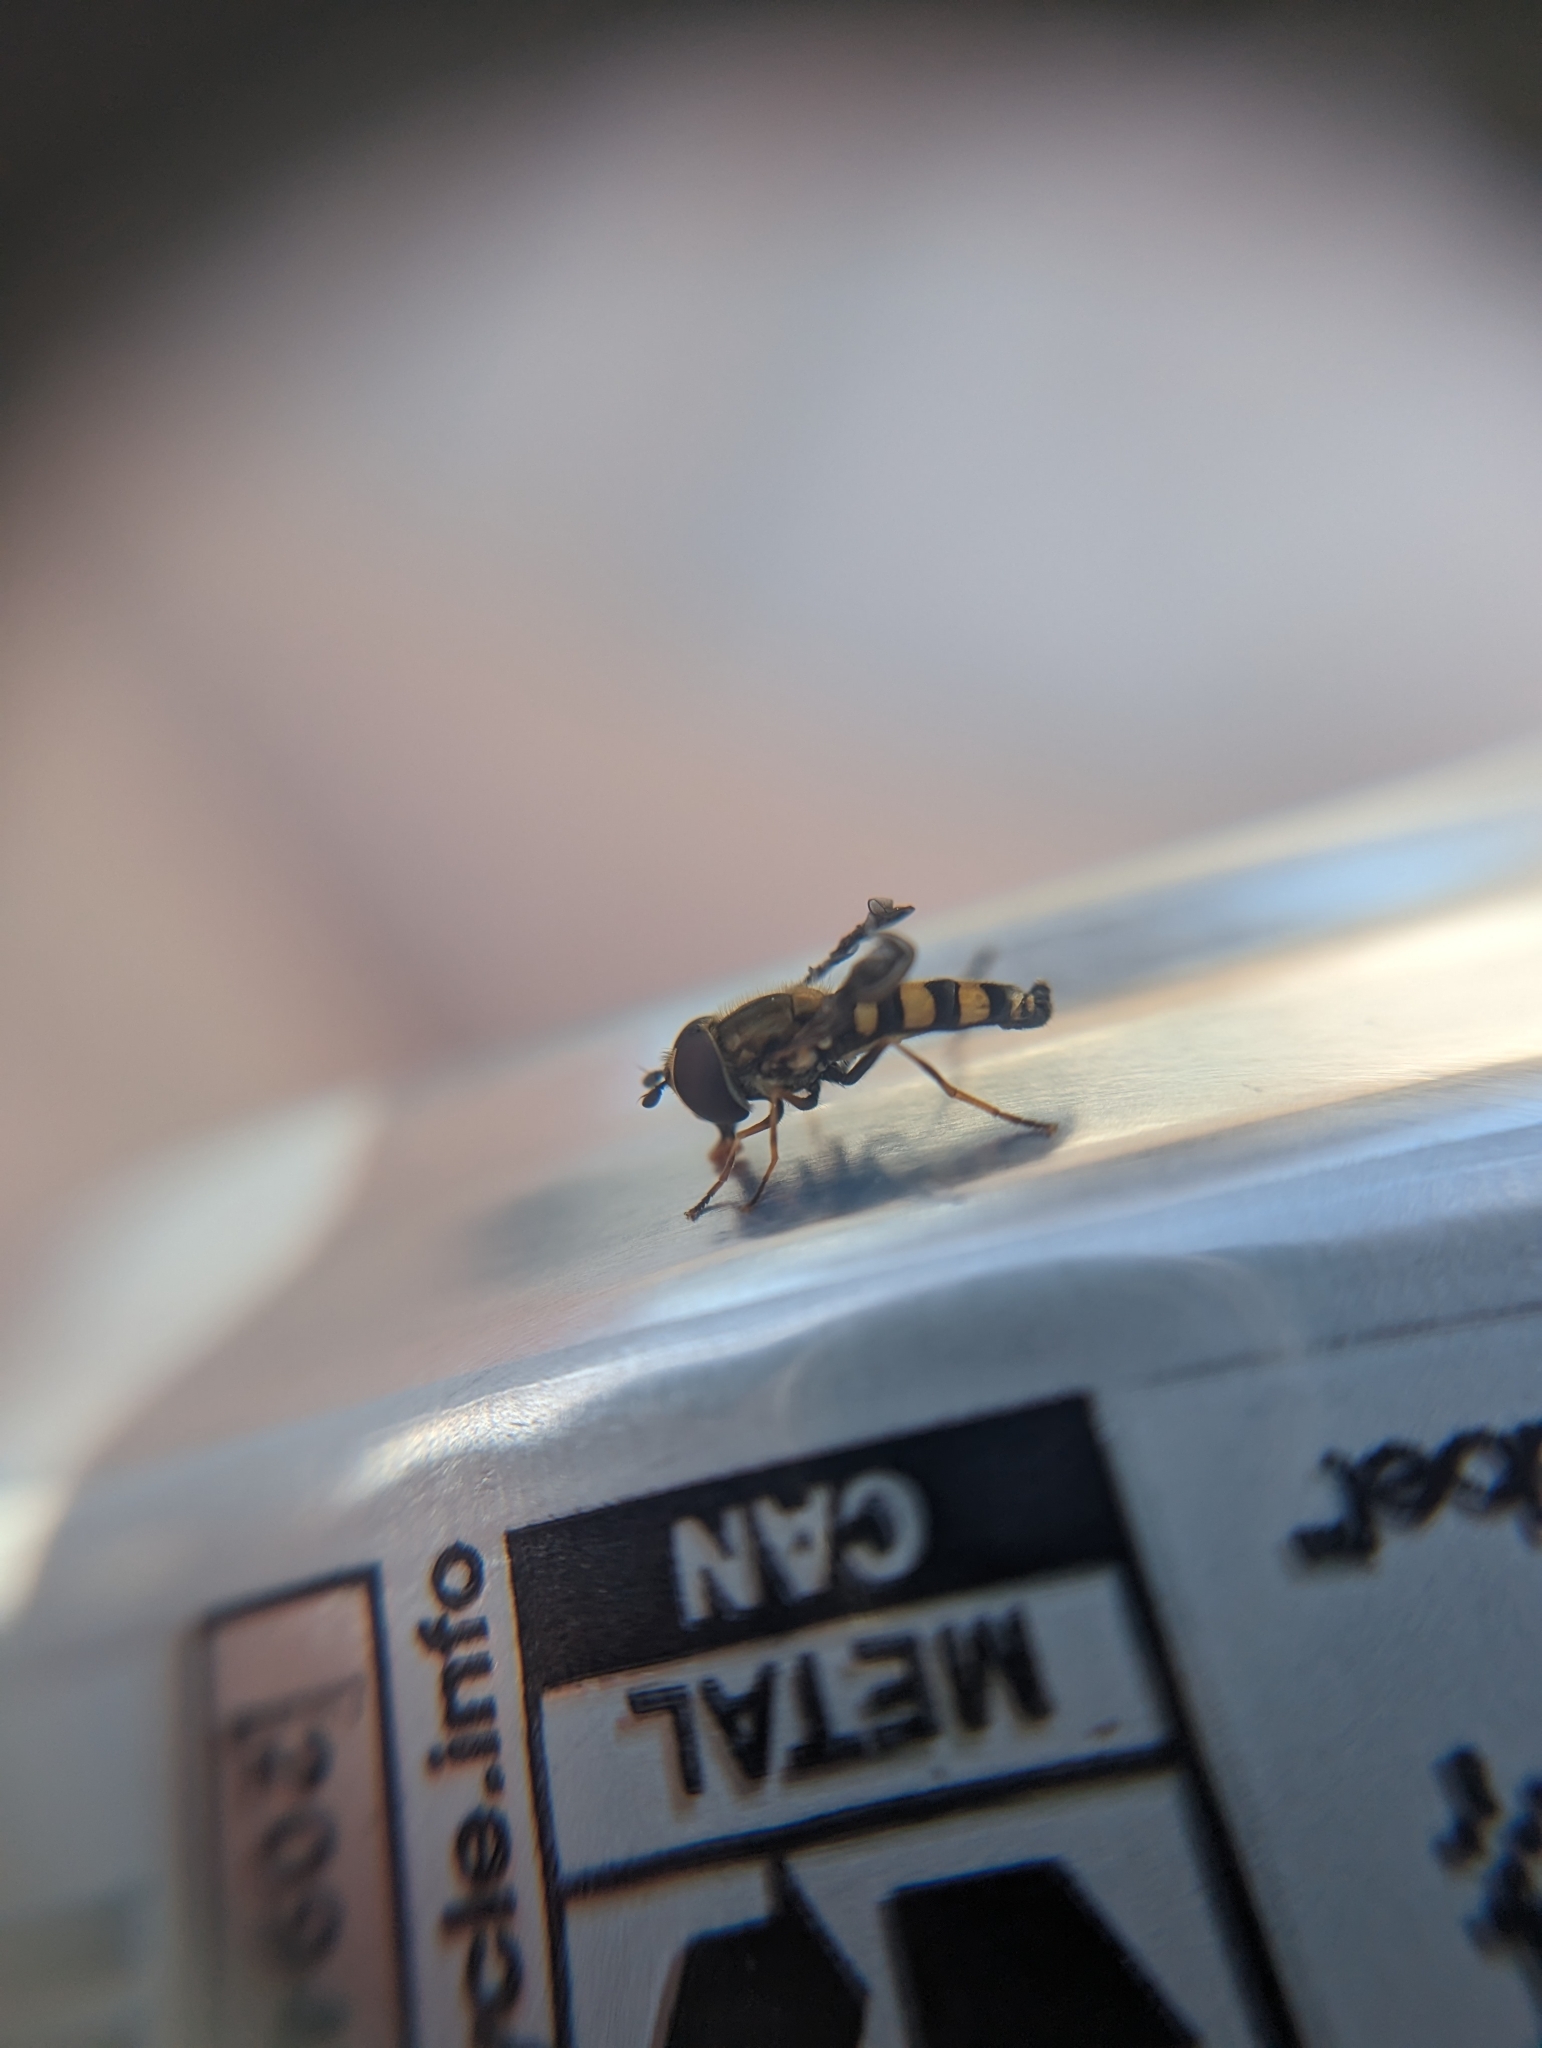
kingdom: Animalia
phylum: Arthropoda
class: Insecta
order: Diptera
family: Syrphidae
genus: Eupeodes
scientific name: Eupeodes
